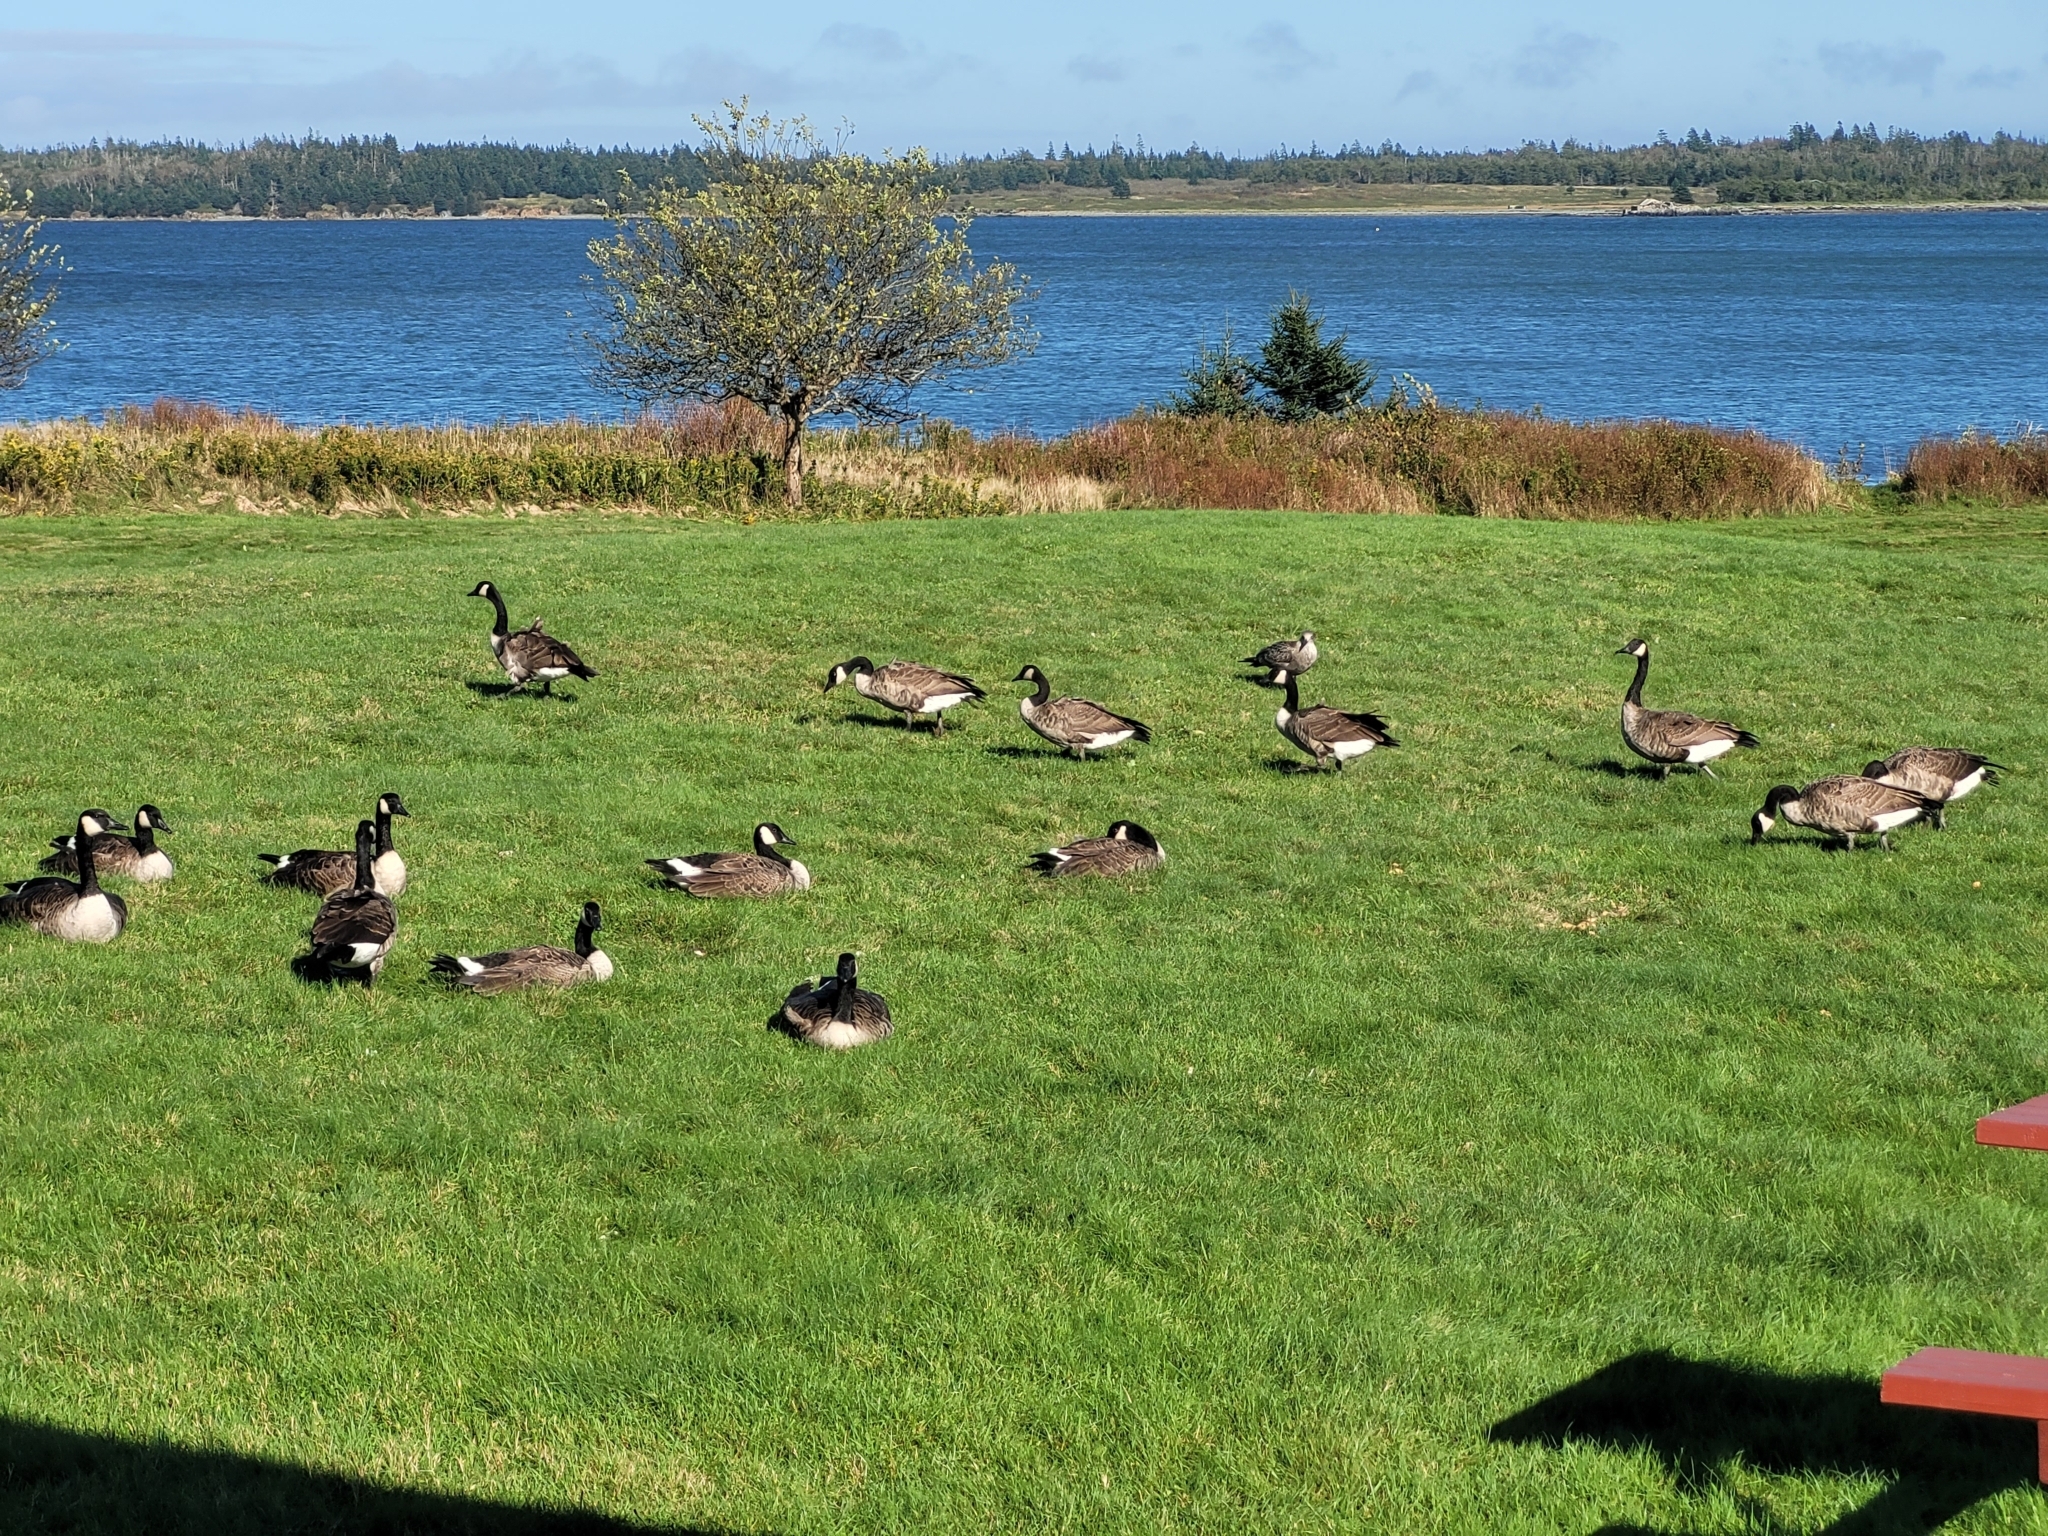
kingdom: Animalia
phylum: Chordata
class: Aves
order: Anseriformes
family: Anatidae
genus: Branta
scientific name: Branta canadensis
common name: Canada goose
